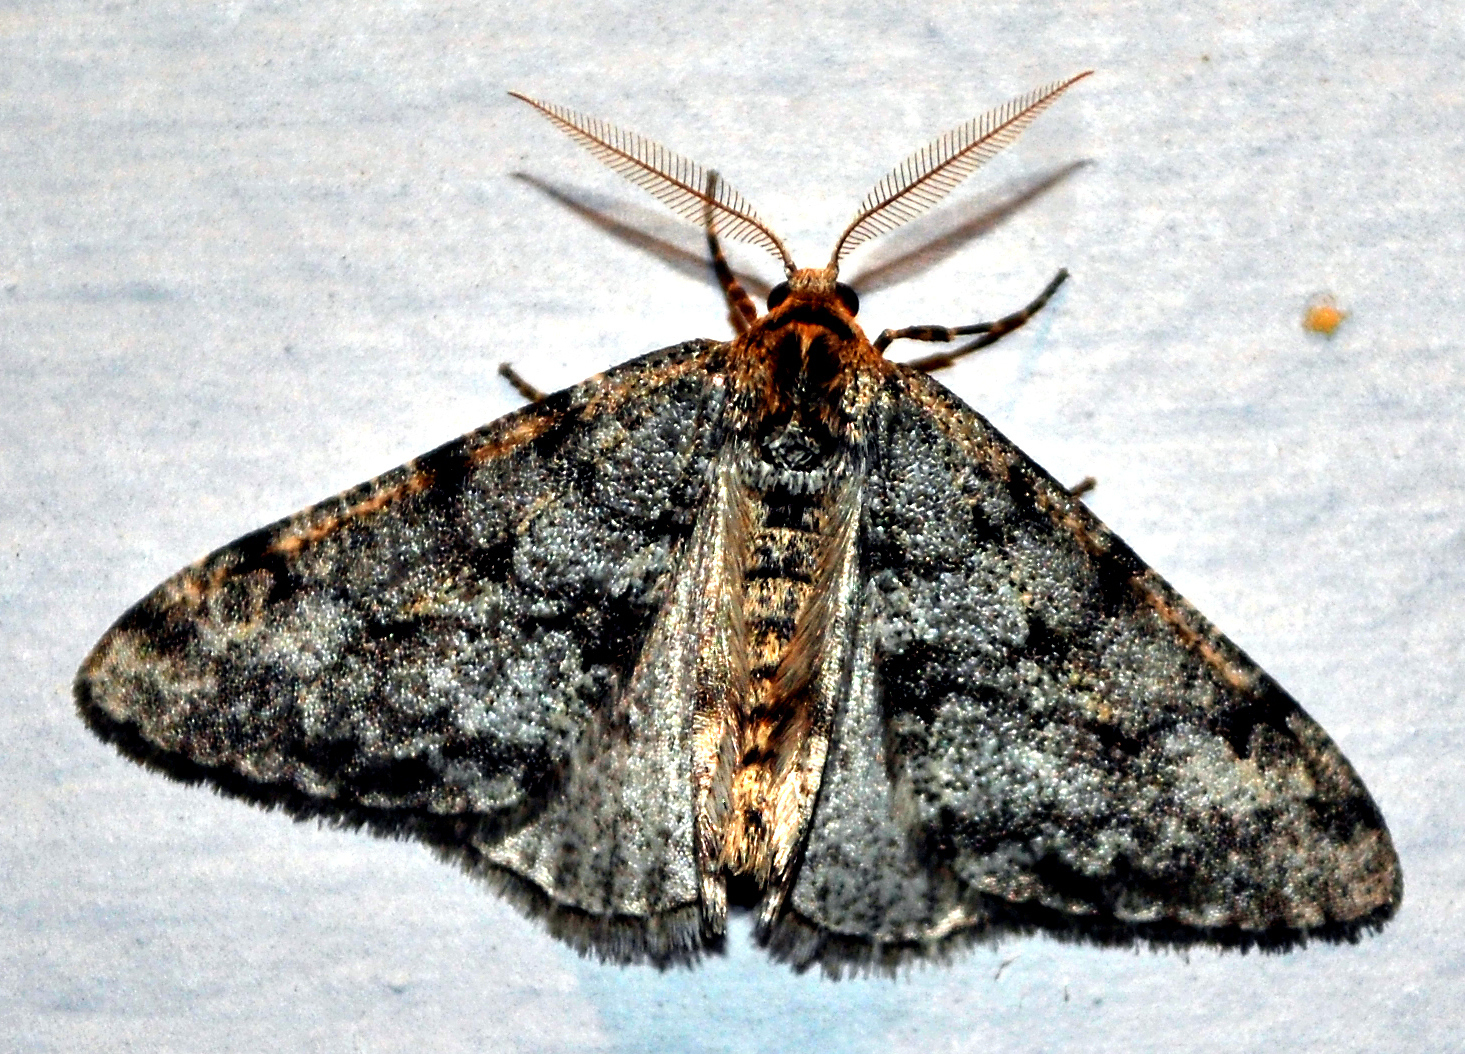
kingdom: Animalia
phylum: Arthropoda
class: Insecta
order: Lepidoptera
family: Geometridae
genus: Phigalia
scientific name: Phigalia strigataria
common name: Small phigalia
